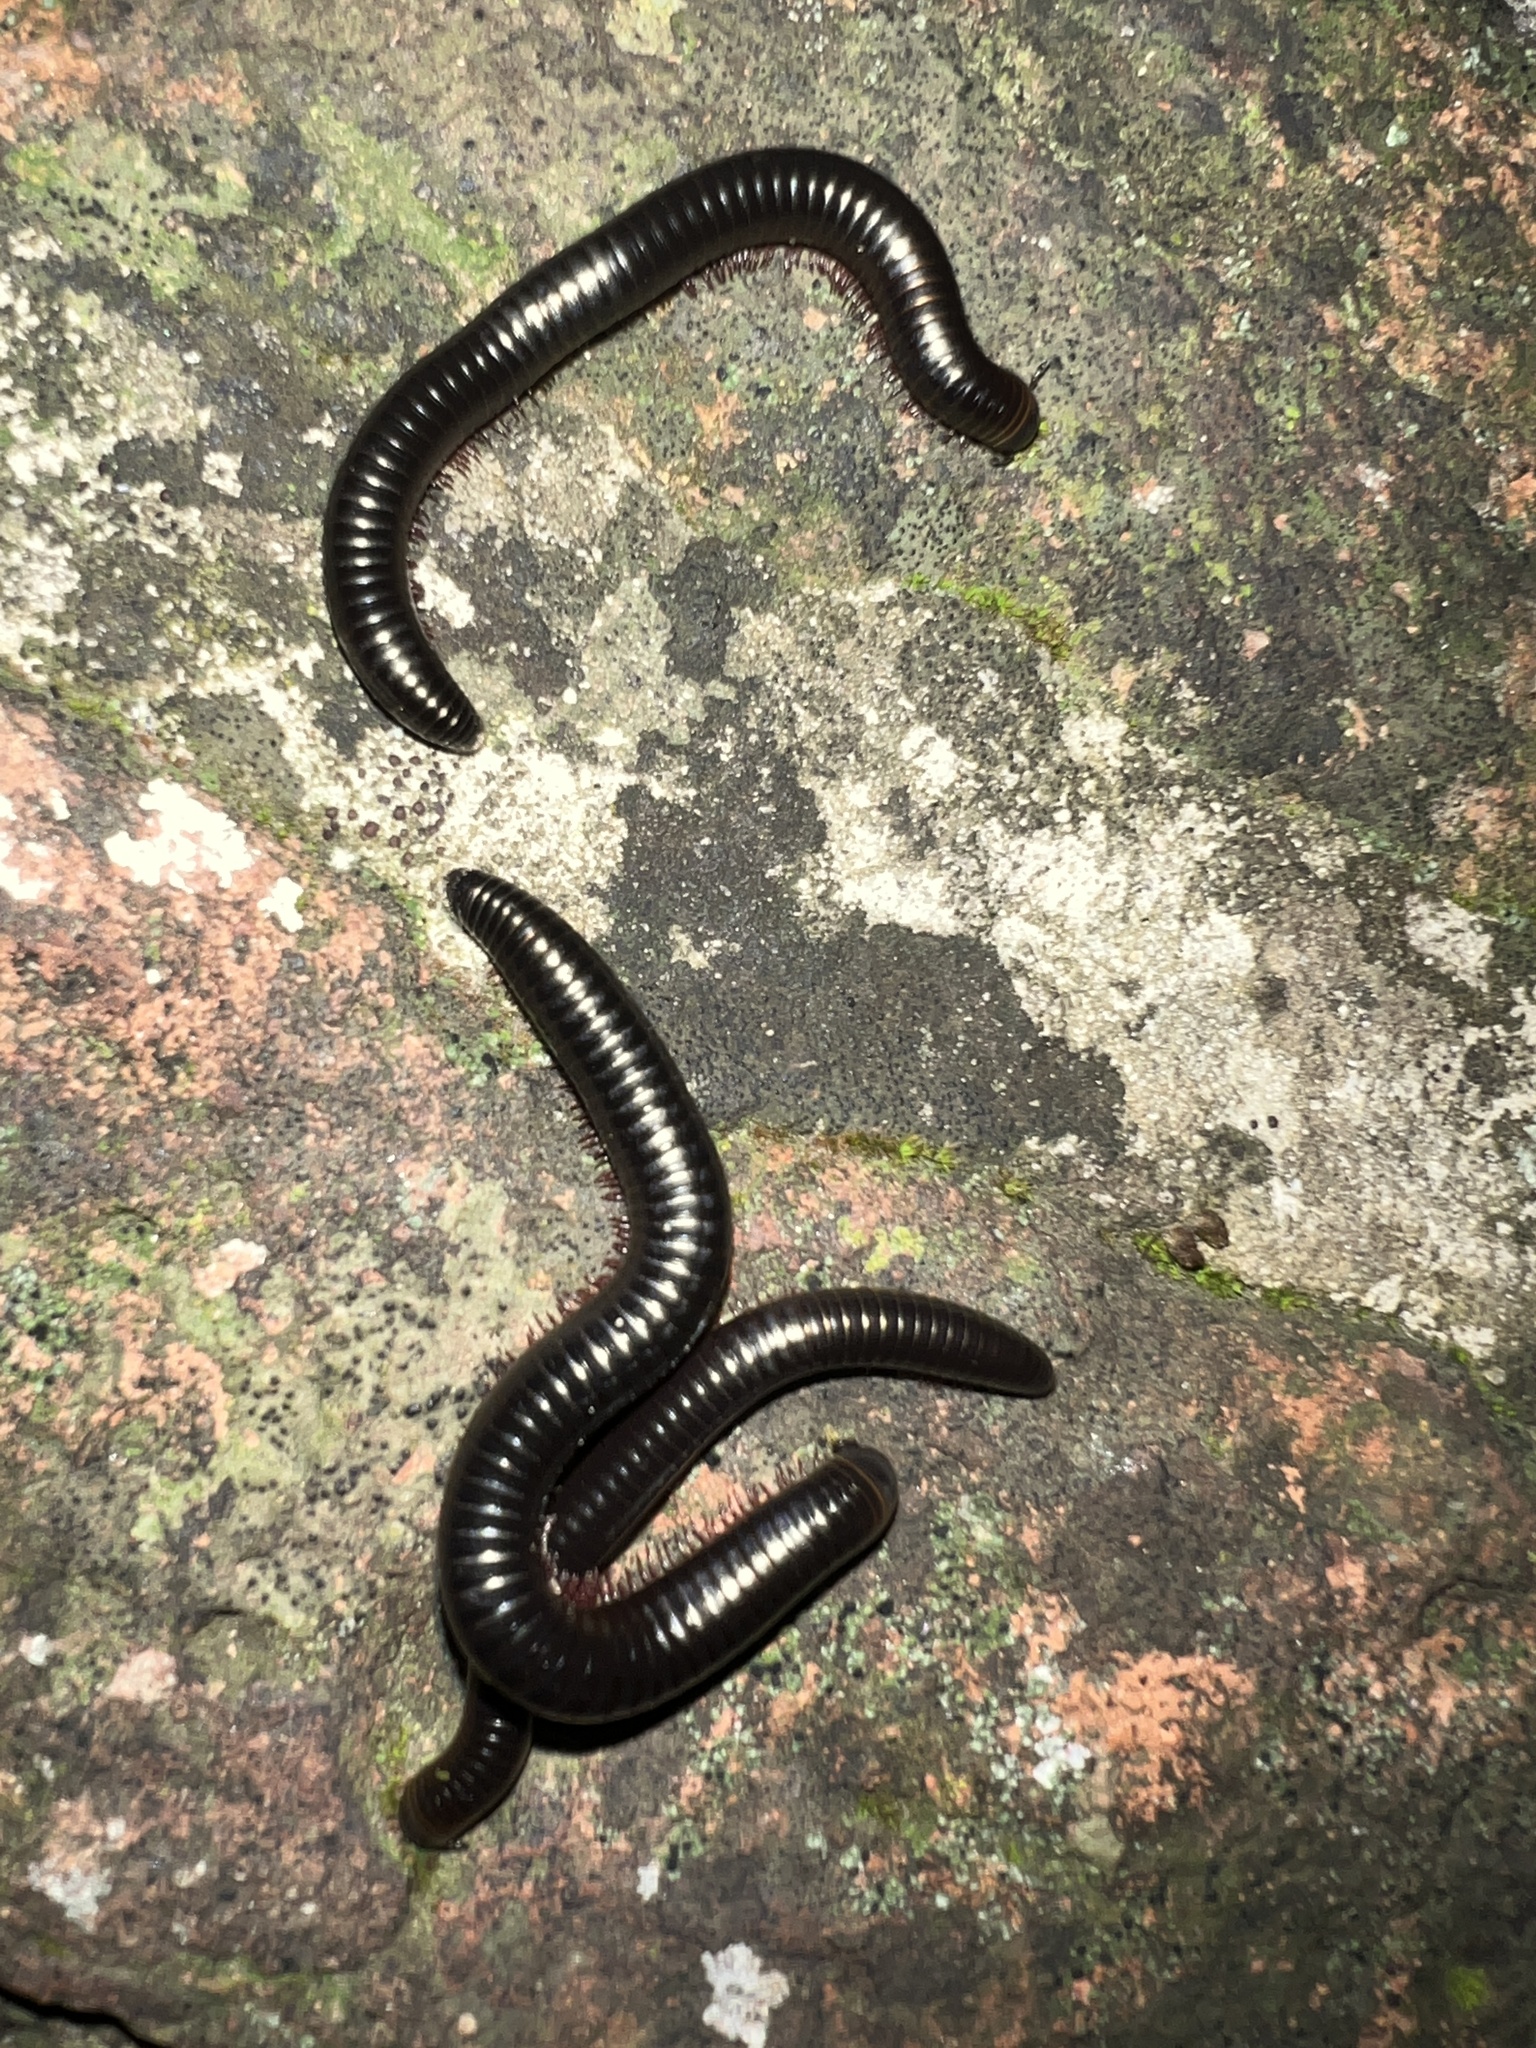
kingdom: Animalia
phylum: Arthropoda
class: Diplopoda
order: Julida
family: Julidae
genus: Pachyiulus
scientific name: Pachyiulus oenologus
